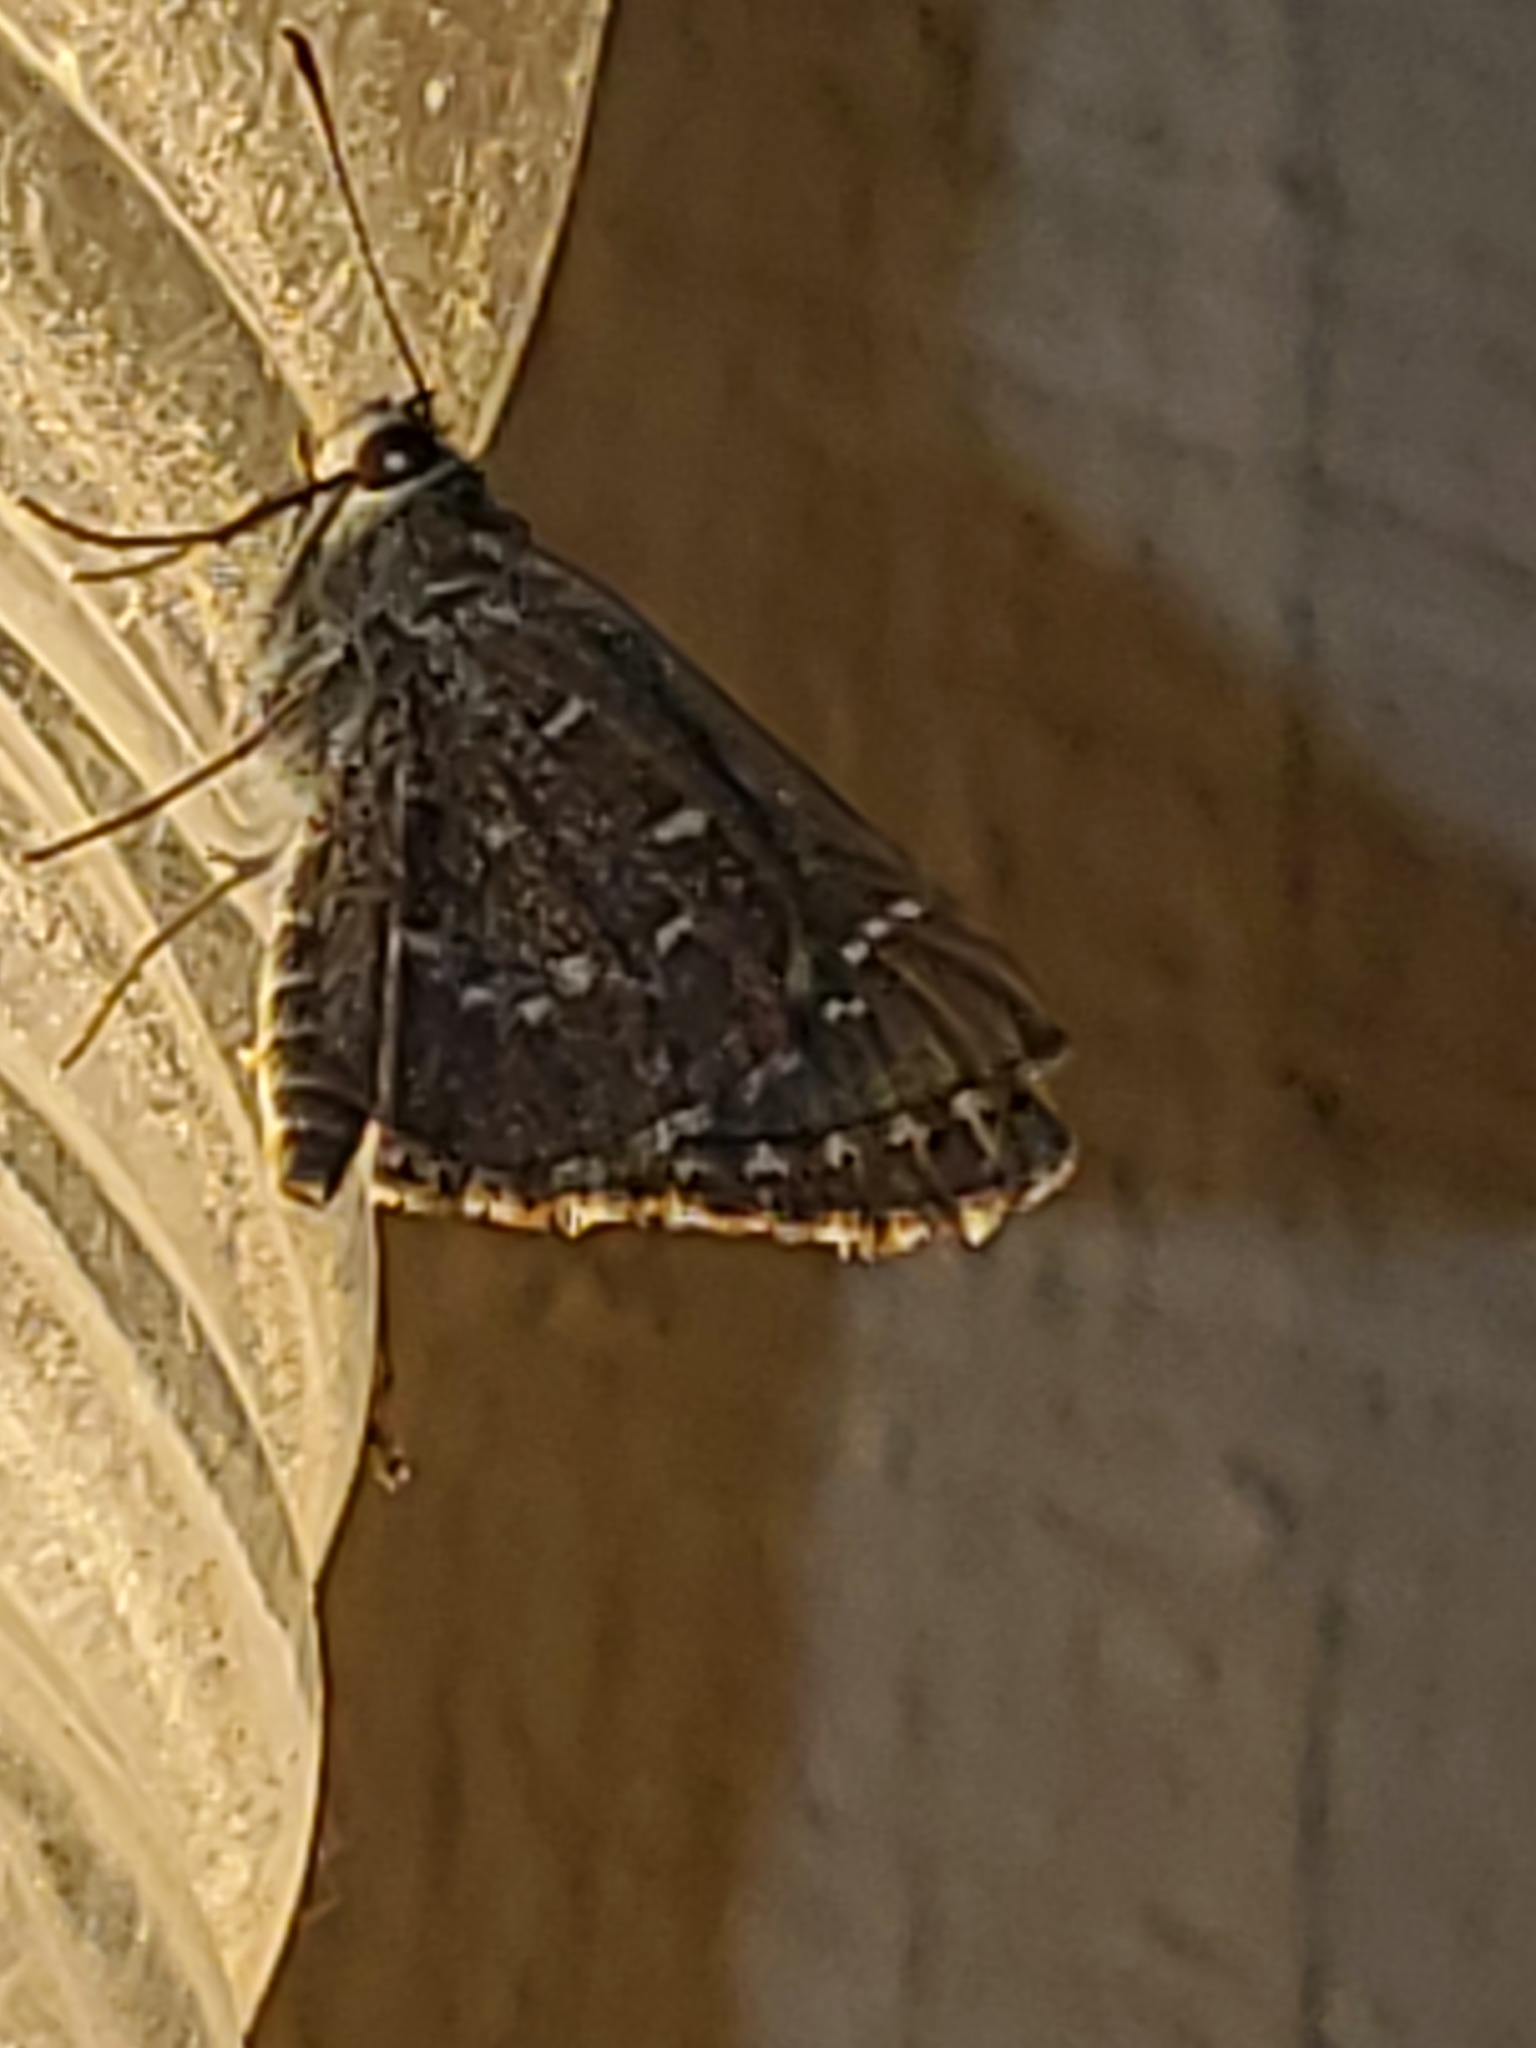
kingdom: Animalia
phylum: Arthropoda
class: Insecta
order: Lepidoptera
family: Hesperiidae
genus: Mastor
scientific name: Mastor celia
